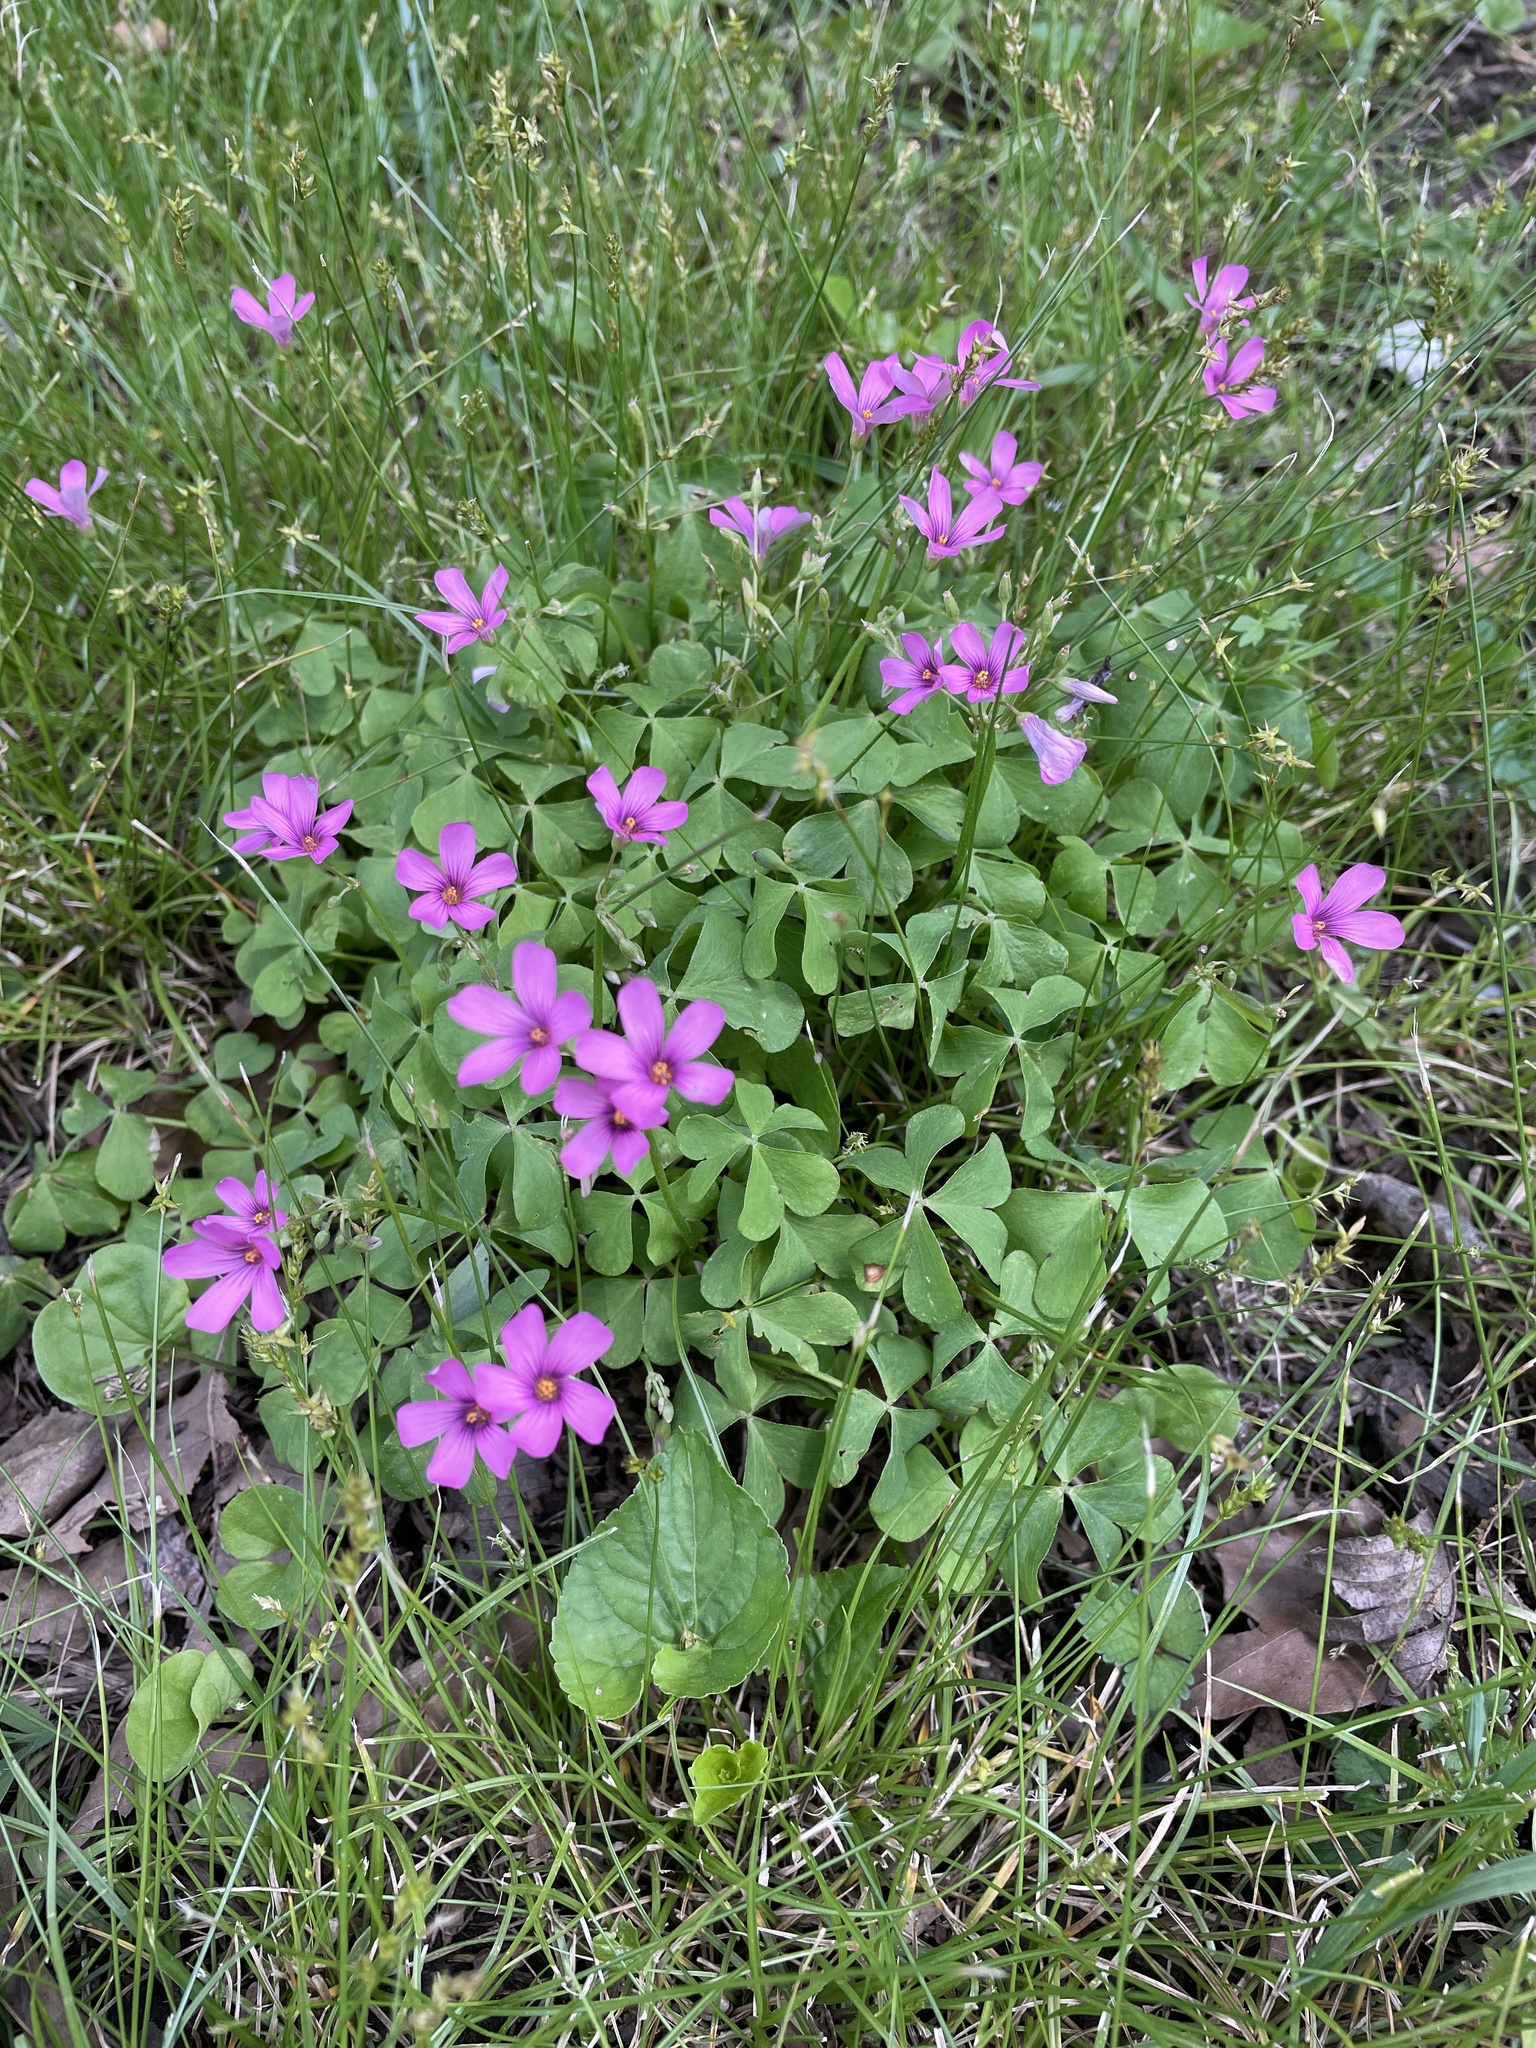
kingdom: Plantae
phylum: Tracheophyta
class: Magnoliopsida
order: Oxalidales
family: Oxalidaceae
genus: Oxalis
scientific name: Oxalis articulata
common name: Pink-sorrel
